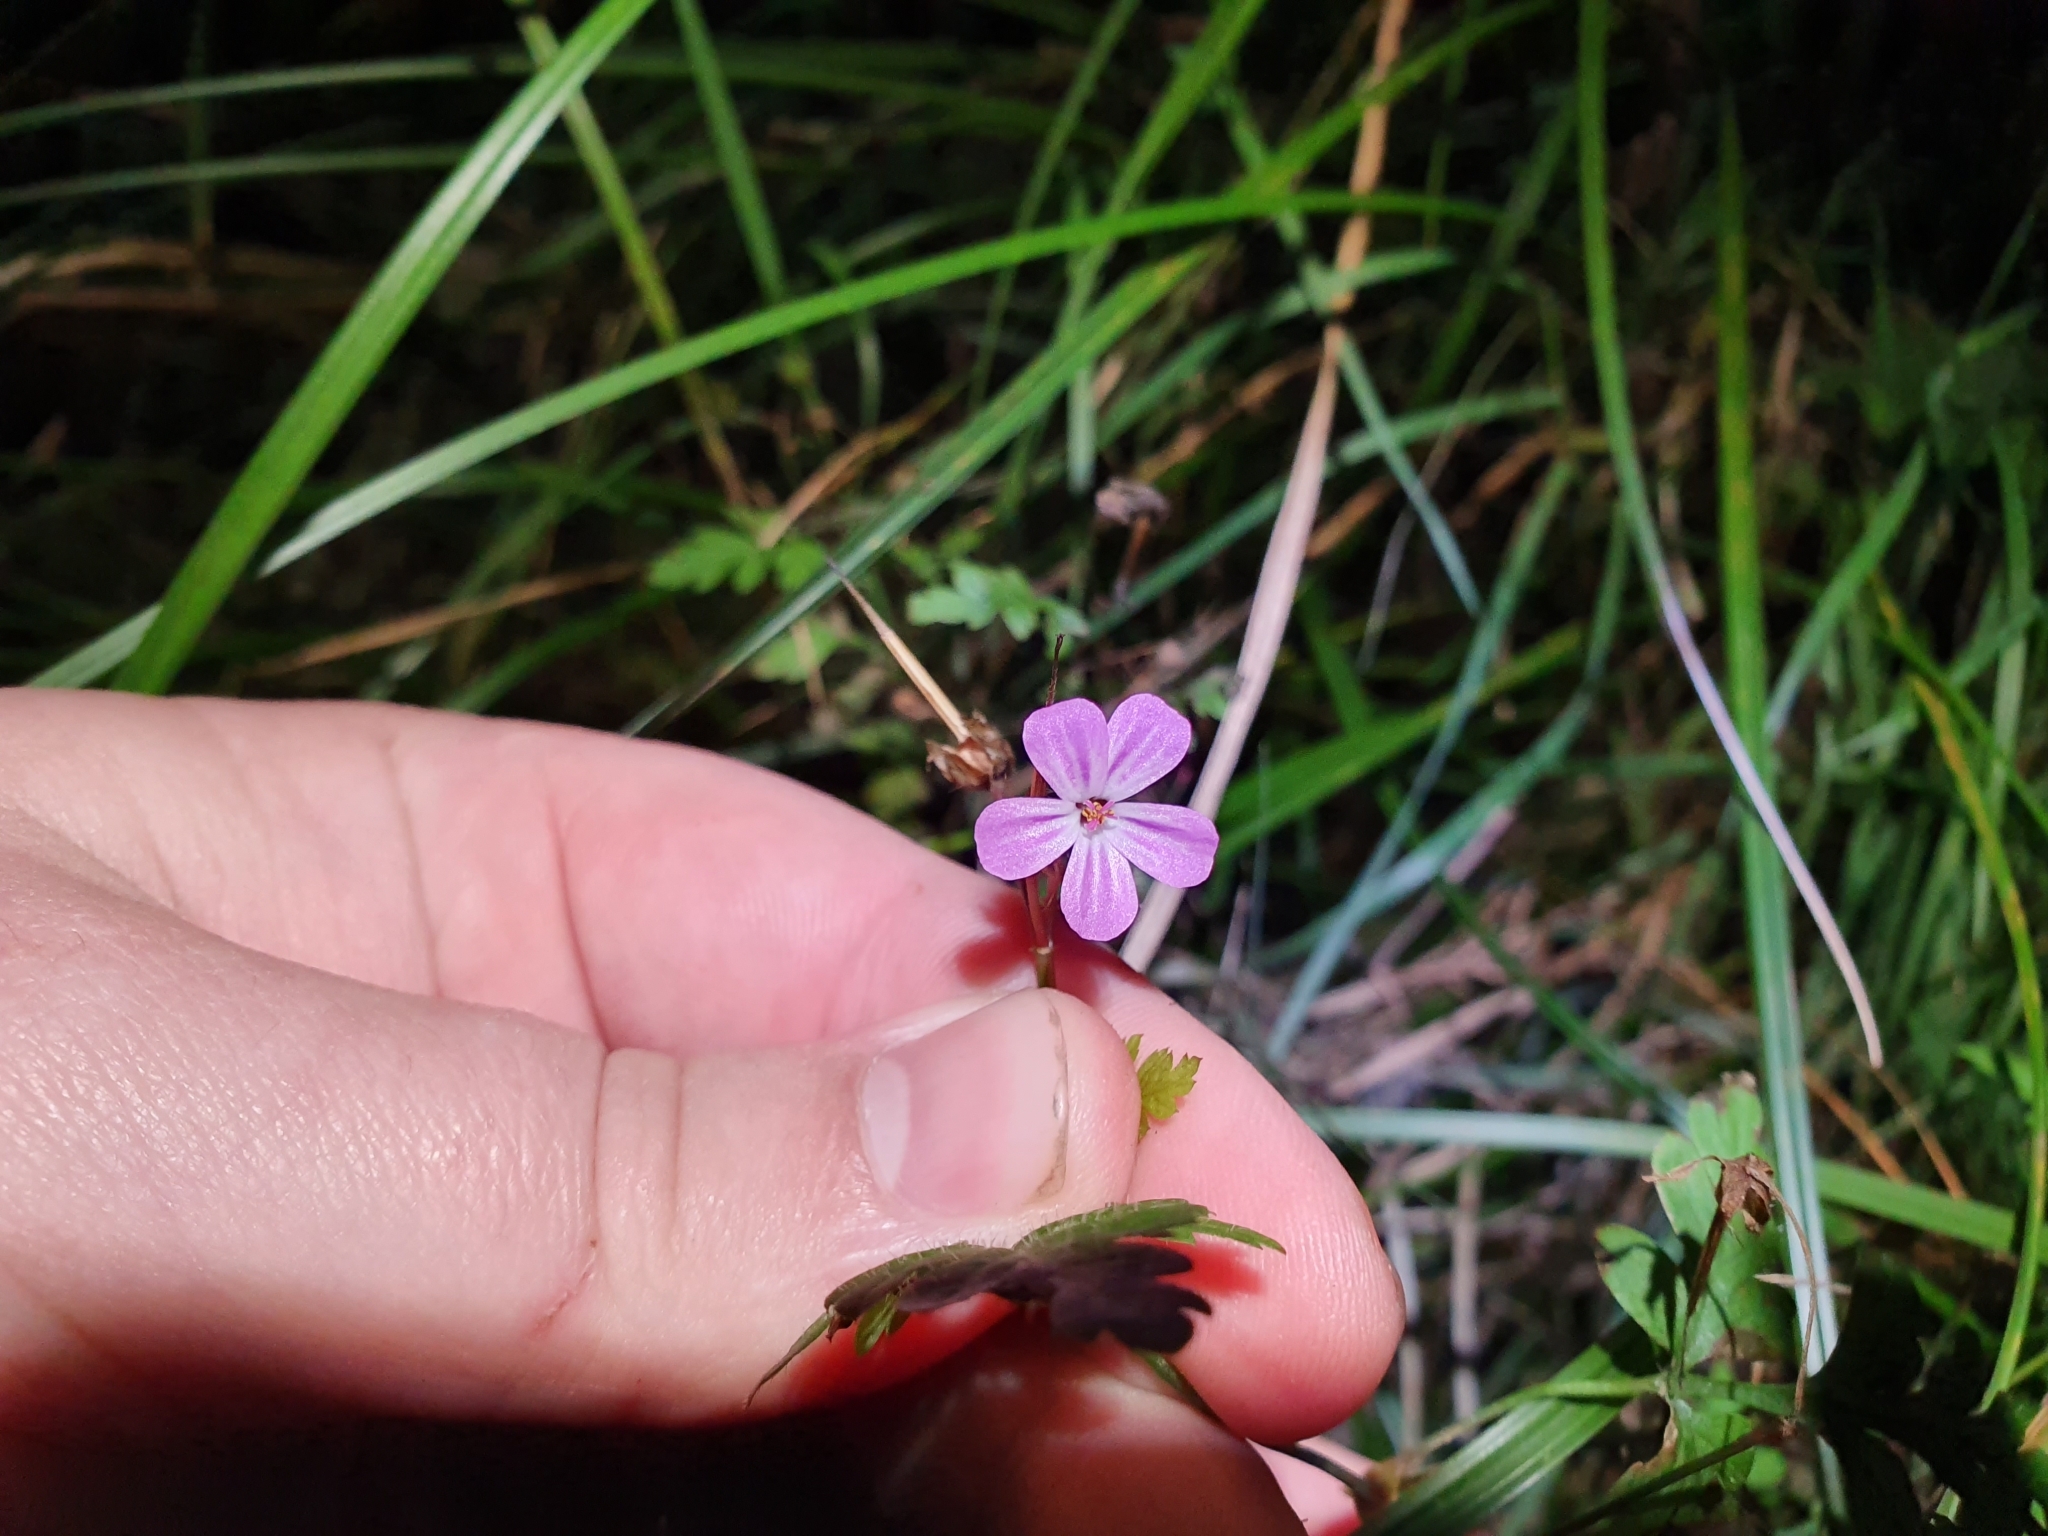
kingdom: Plantae
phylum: Tracheophyta
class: Magnoliopsida
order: Geraniales
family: Geraniaceae
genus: Geranium
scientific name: Geranium robertianum
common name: Herb-robert
